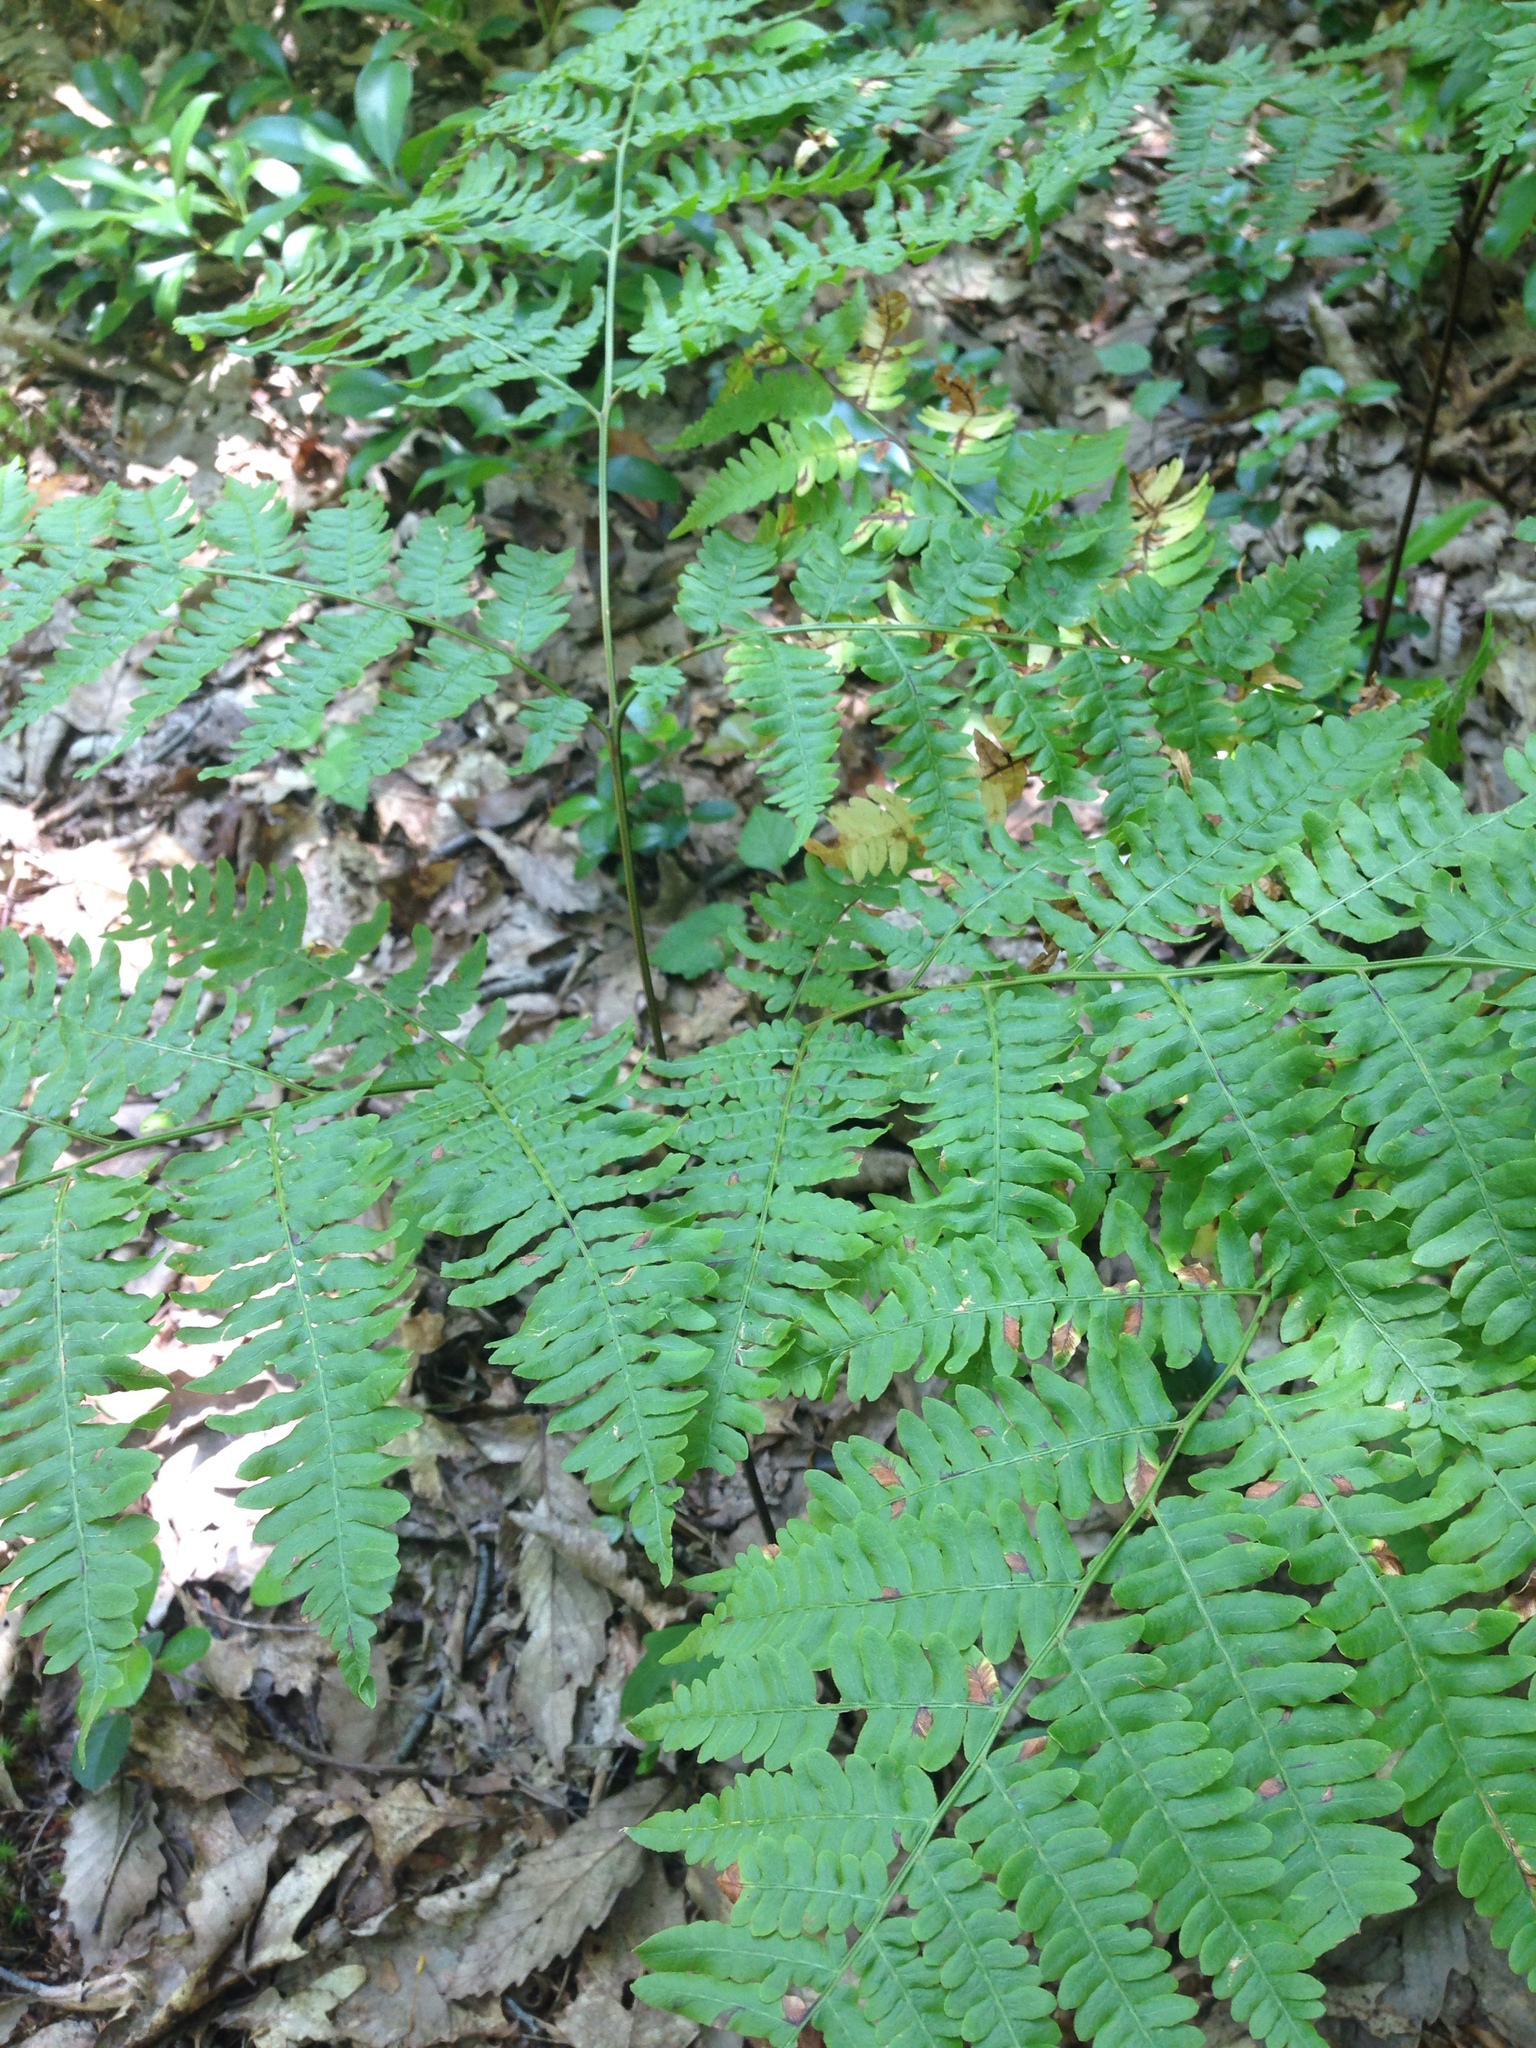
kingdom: Plantae
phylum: Tracheophyta
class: Polypodiopsida
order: Polypodiales
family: Dennstaedtiaceae
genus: Pteridium
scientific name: Pteridium aquilinum
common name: Bracken
